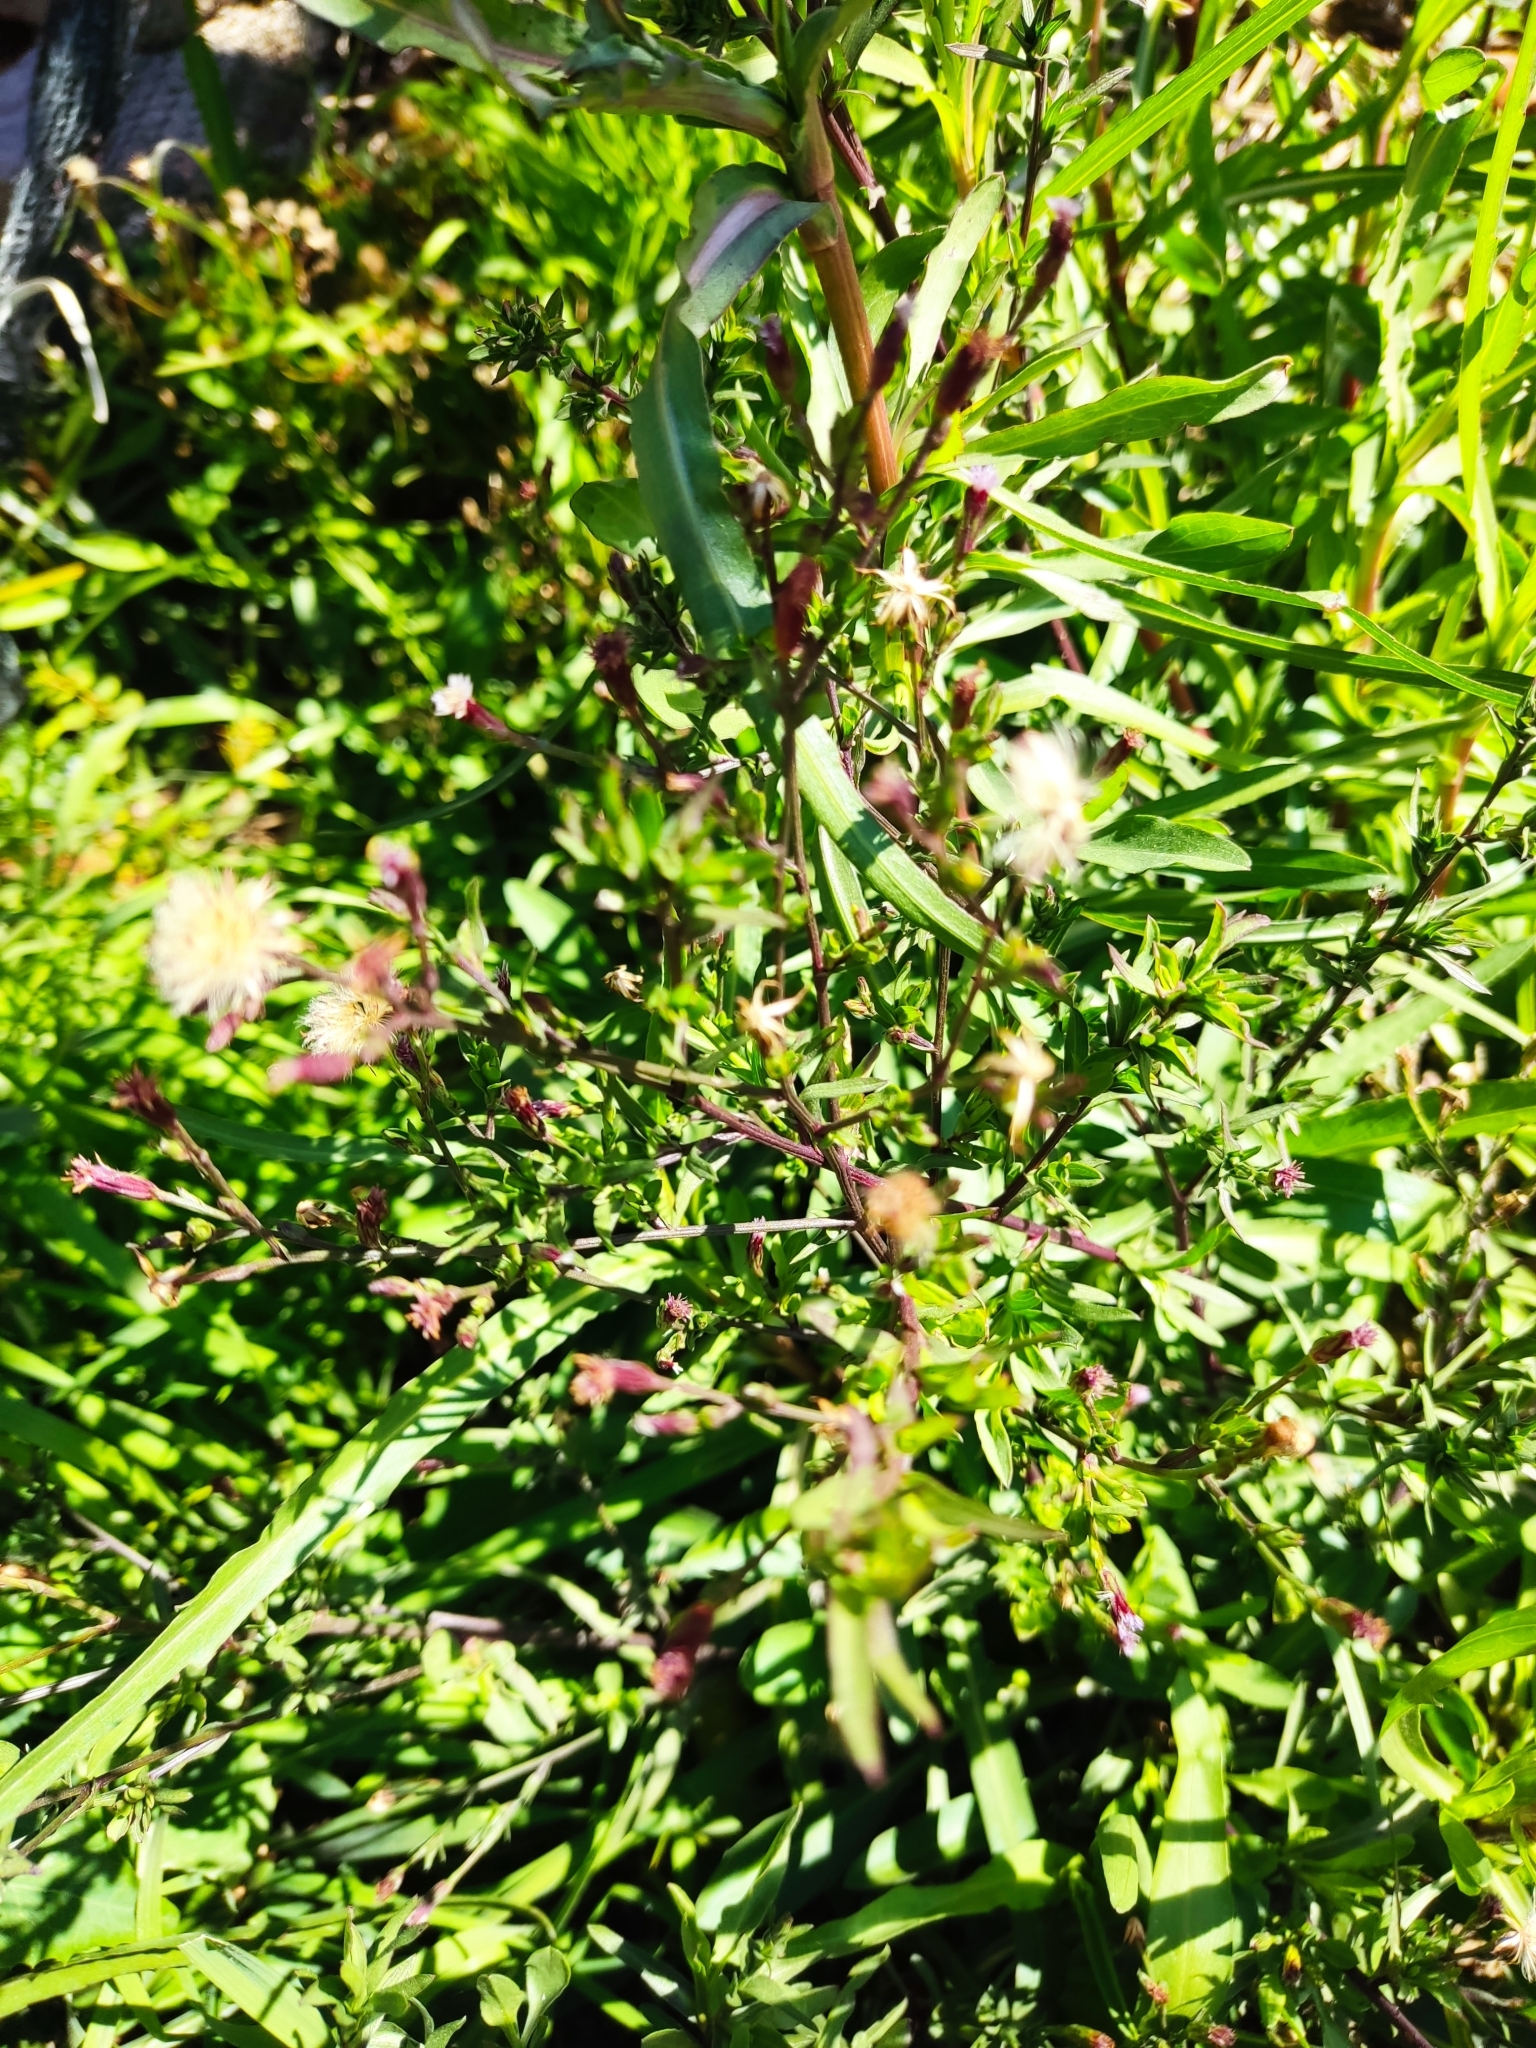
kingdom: Plantae
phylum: Tracheophyta
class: Magnoliopsida
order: Asterales
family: Asteraceae
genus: Symphyotrichum
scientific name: Symphyotrichum subulatum
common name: Annual saltmarsh aster
